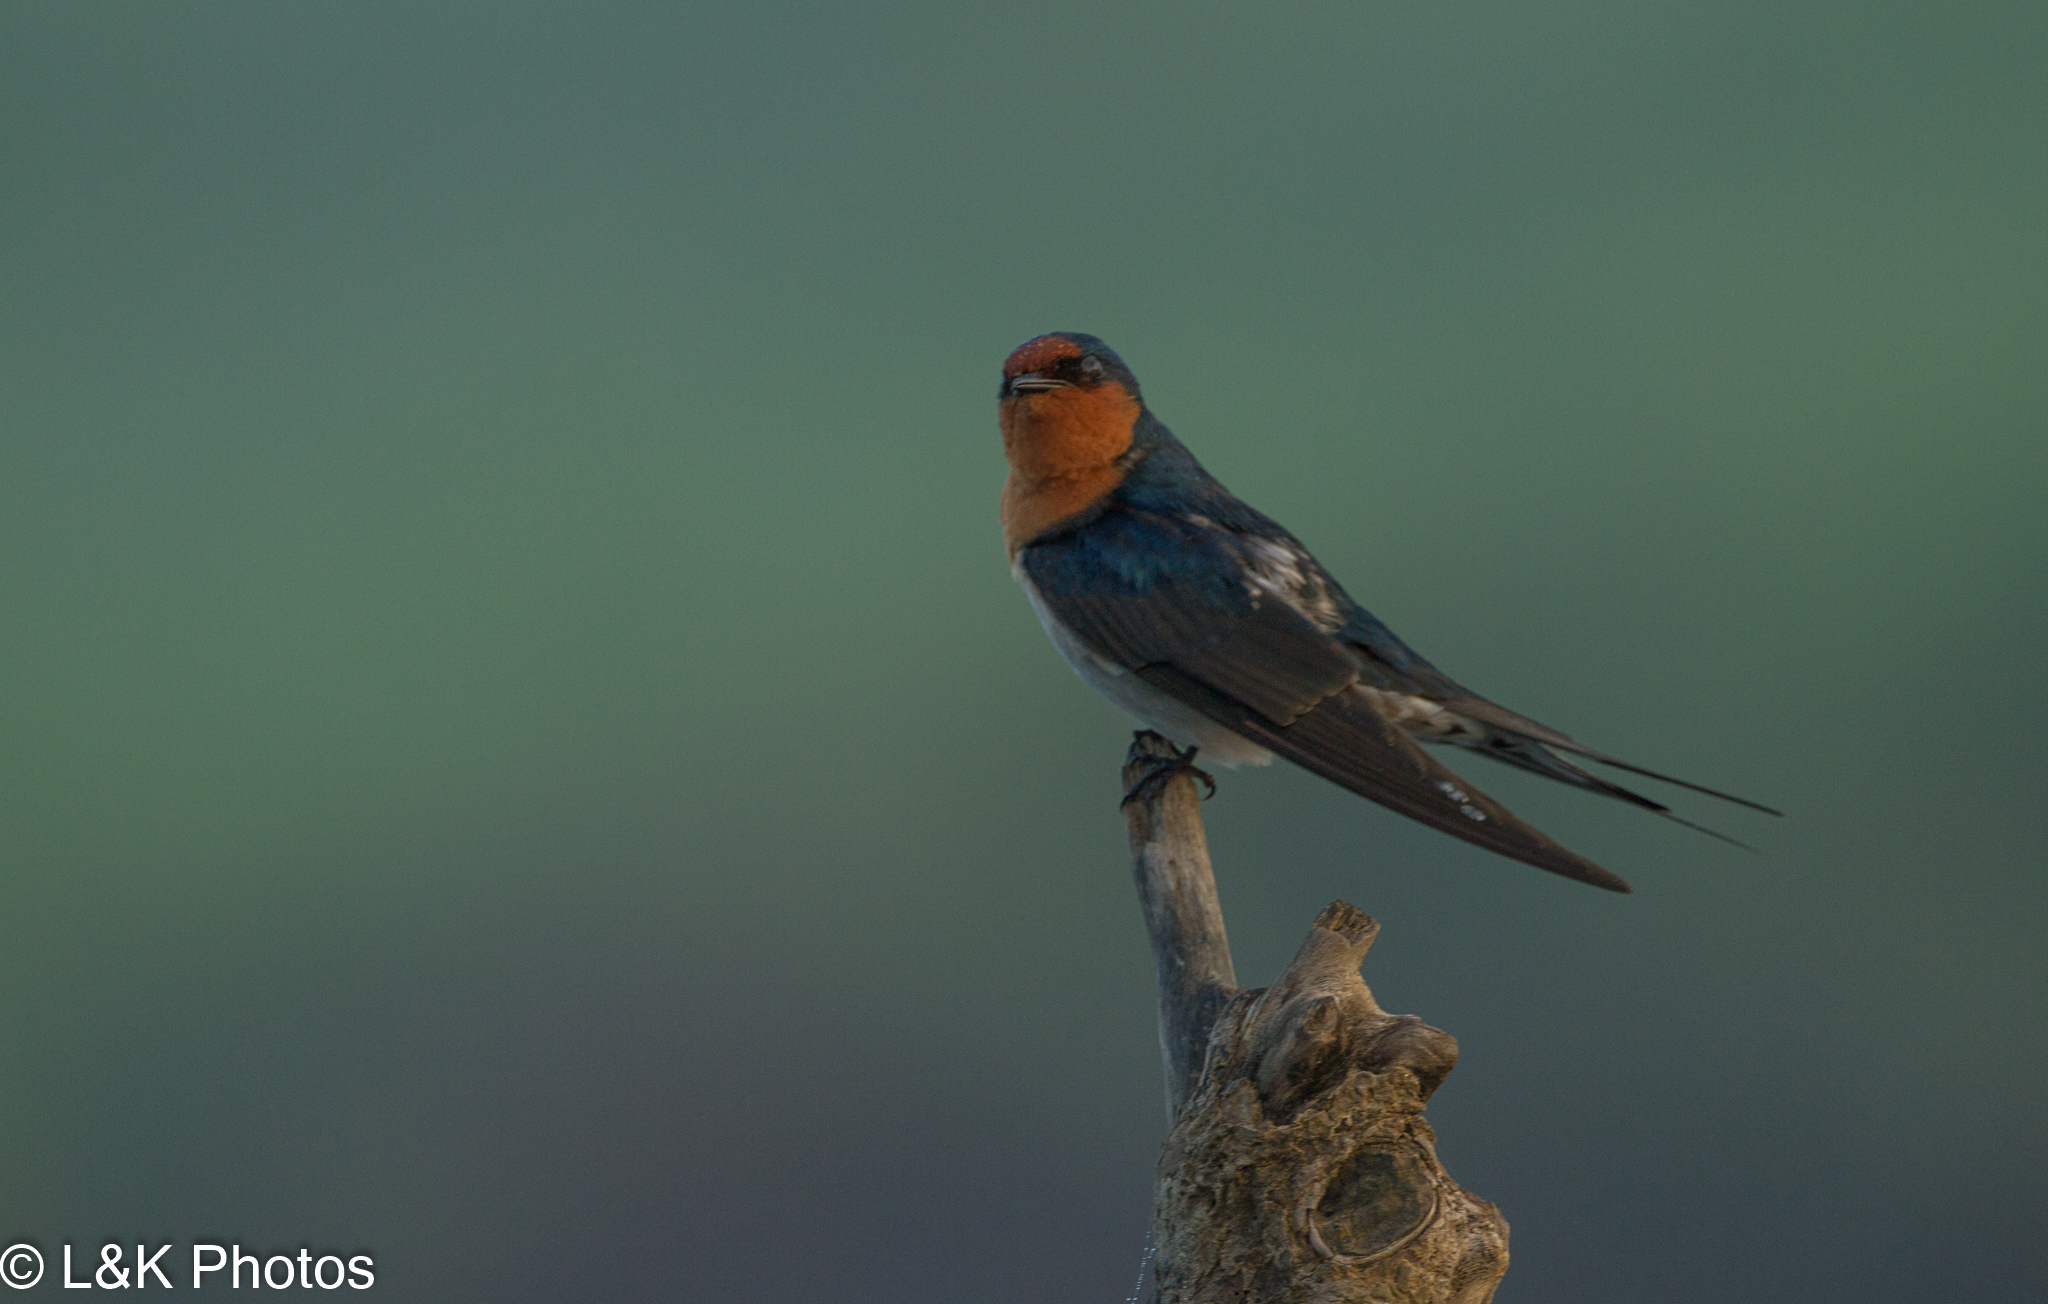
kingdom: Animalia
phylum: Chordata
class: Aves
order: Passeriformes
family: Hirundinidae
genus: Hirundo
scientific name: Hirundo neoxena
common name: Welcome swallow
